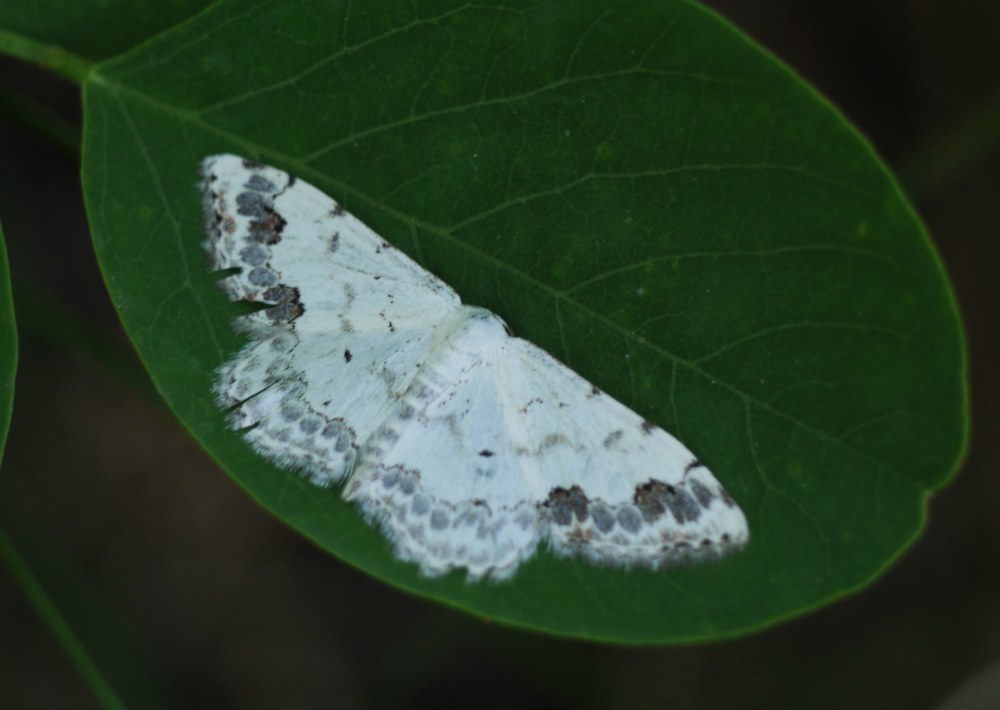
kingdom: Animalia
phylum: Arthropoda
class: Insecta
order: Lepidoptera
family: Geometridae
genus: Scopula
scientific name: Scopula decorata
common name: Middle lace border
